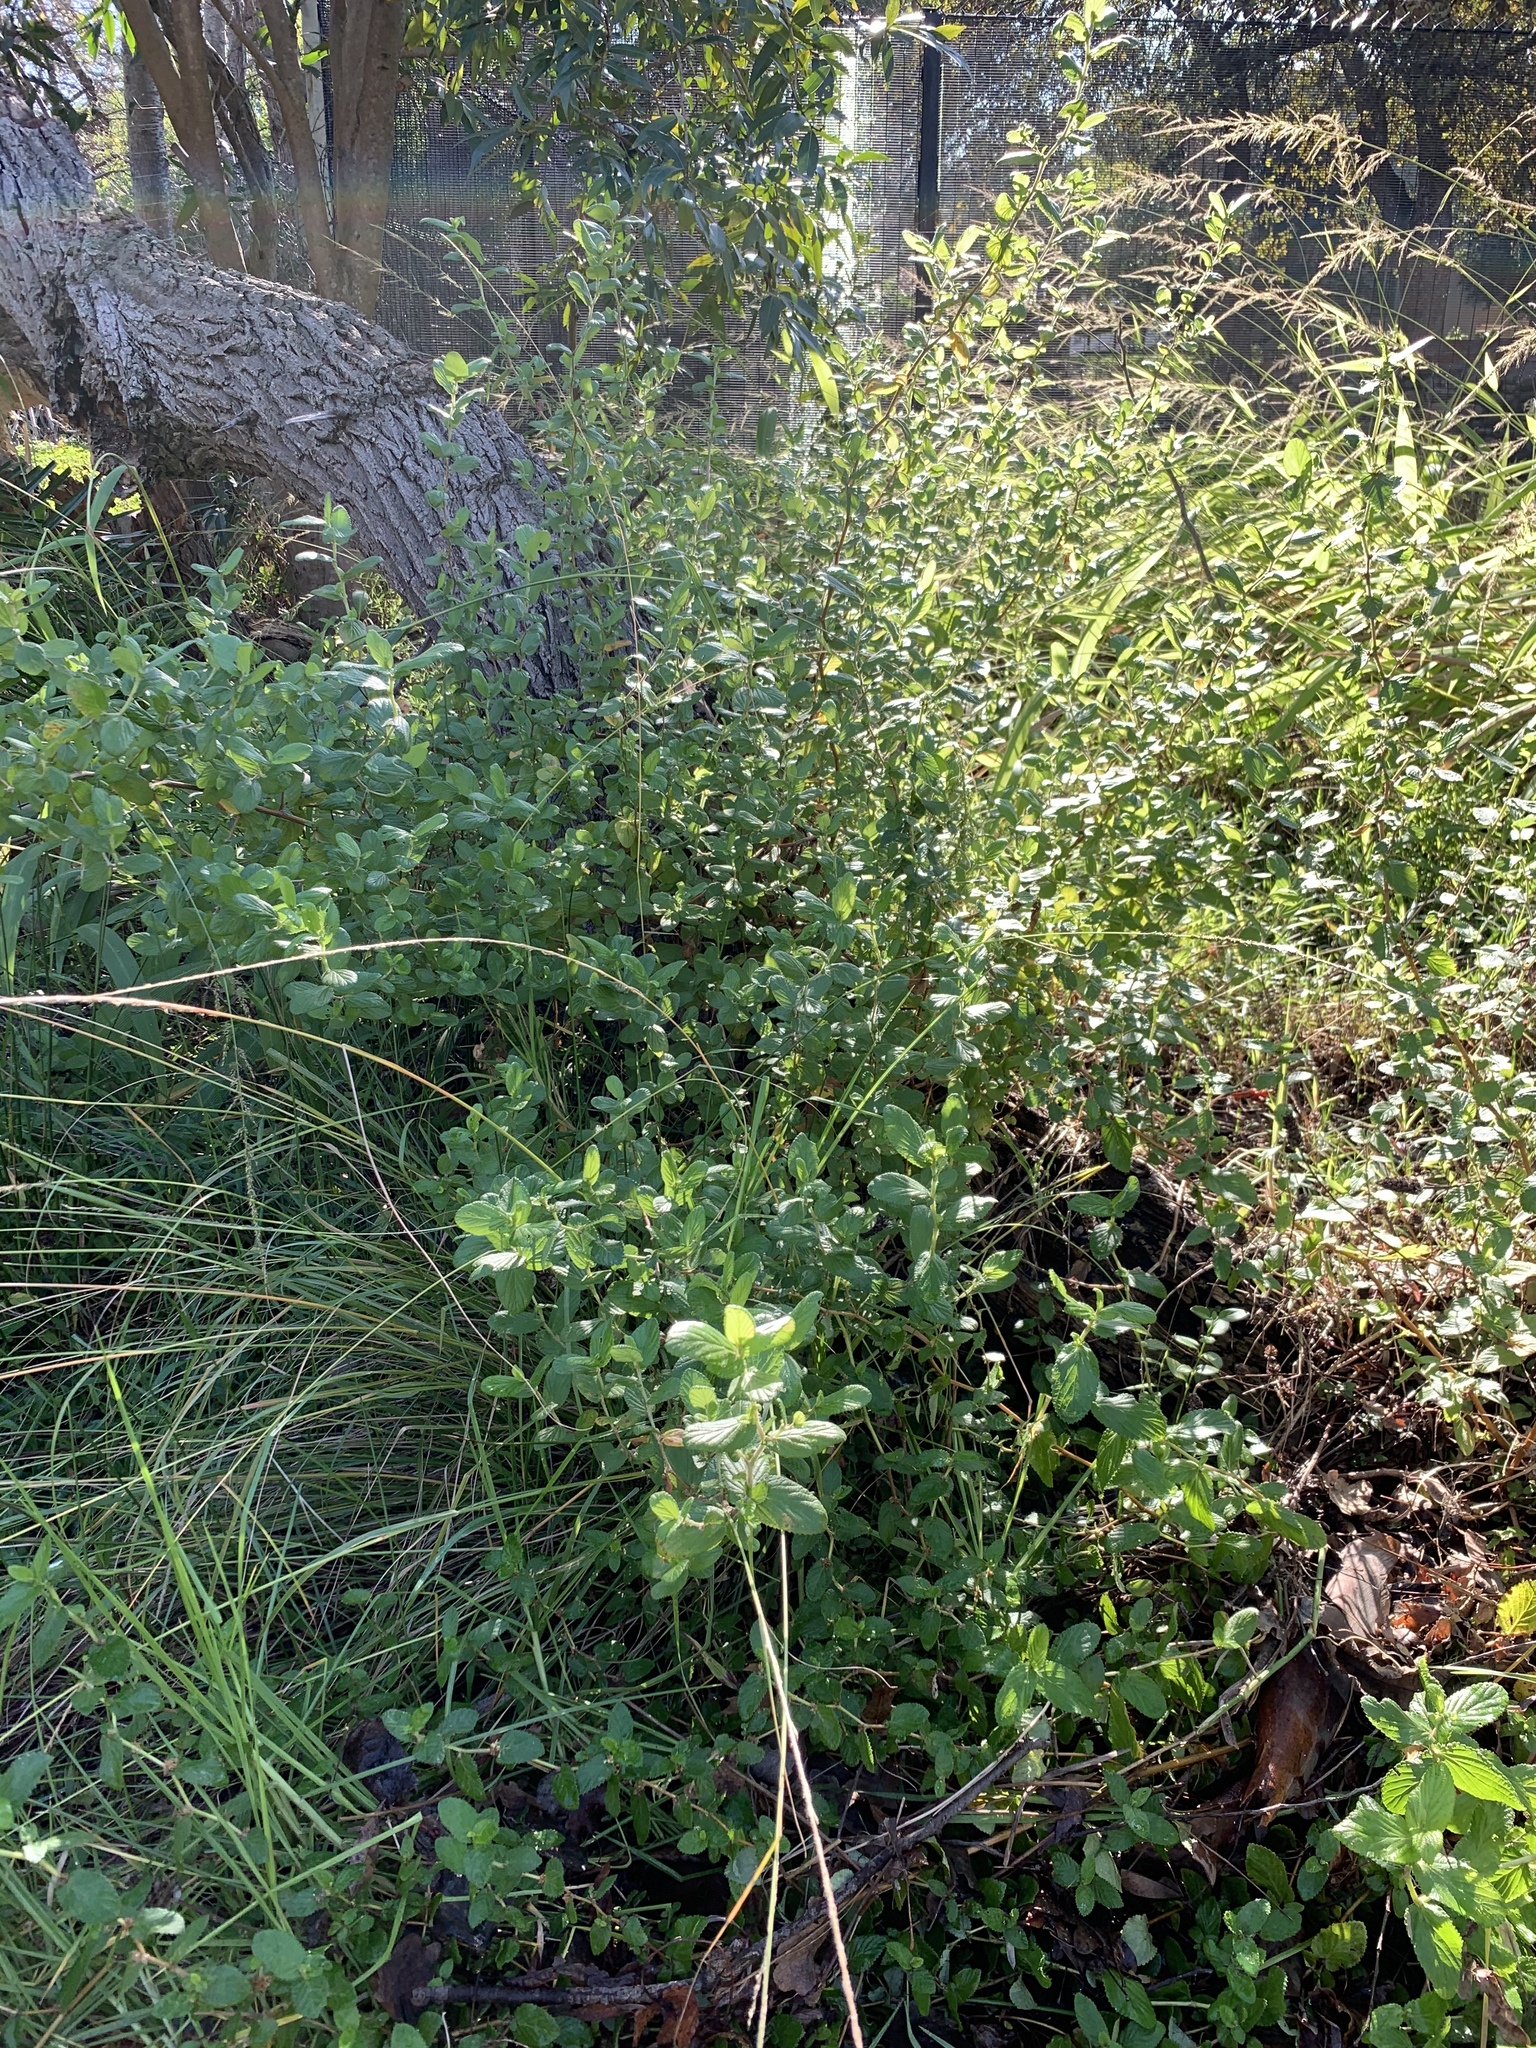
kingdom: Plantae
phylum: Tracheophyta
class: Magnoliopsida
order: Rosales
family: Rosaceae
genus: Cliffortia
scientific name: Cliffortia odorata
